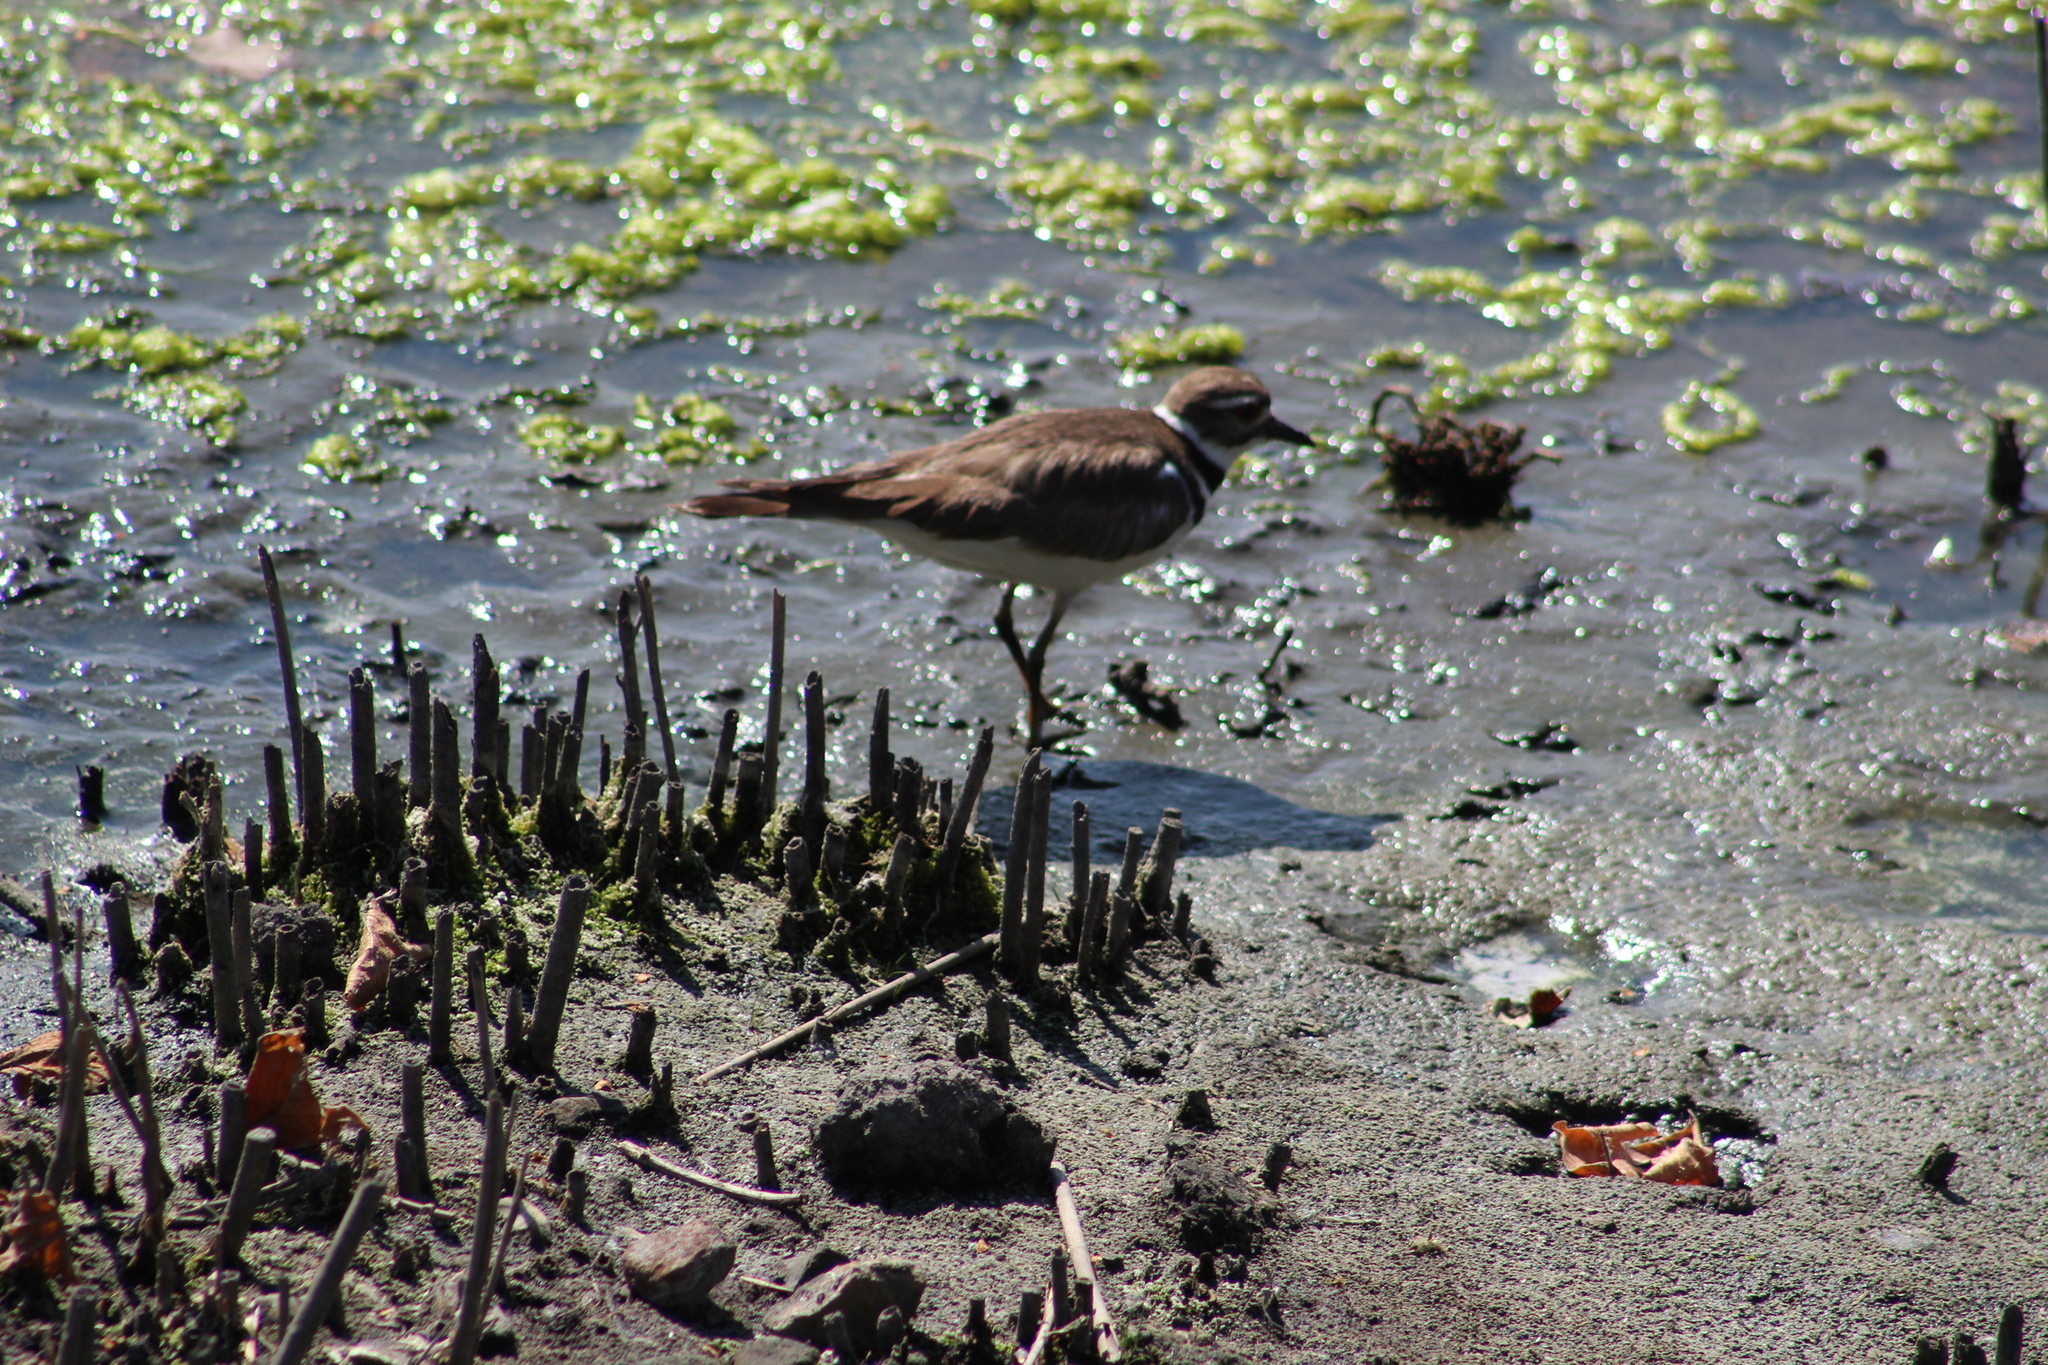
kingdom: Animalia
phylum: Chordata
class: Aves
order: Charadriiformes
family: Charadriidae
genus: Charadrius
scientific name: Charadrius vociferus
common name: Killdeer
